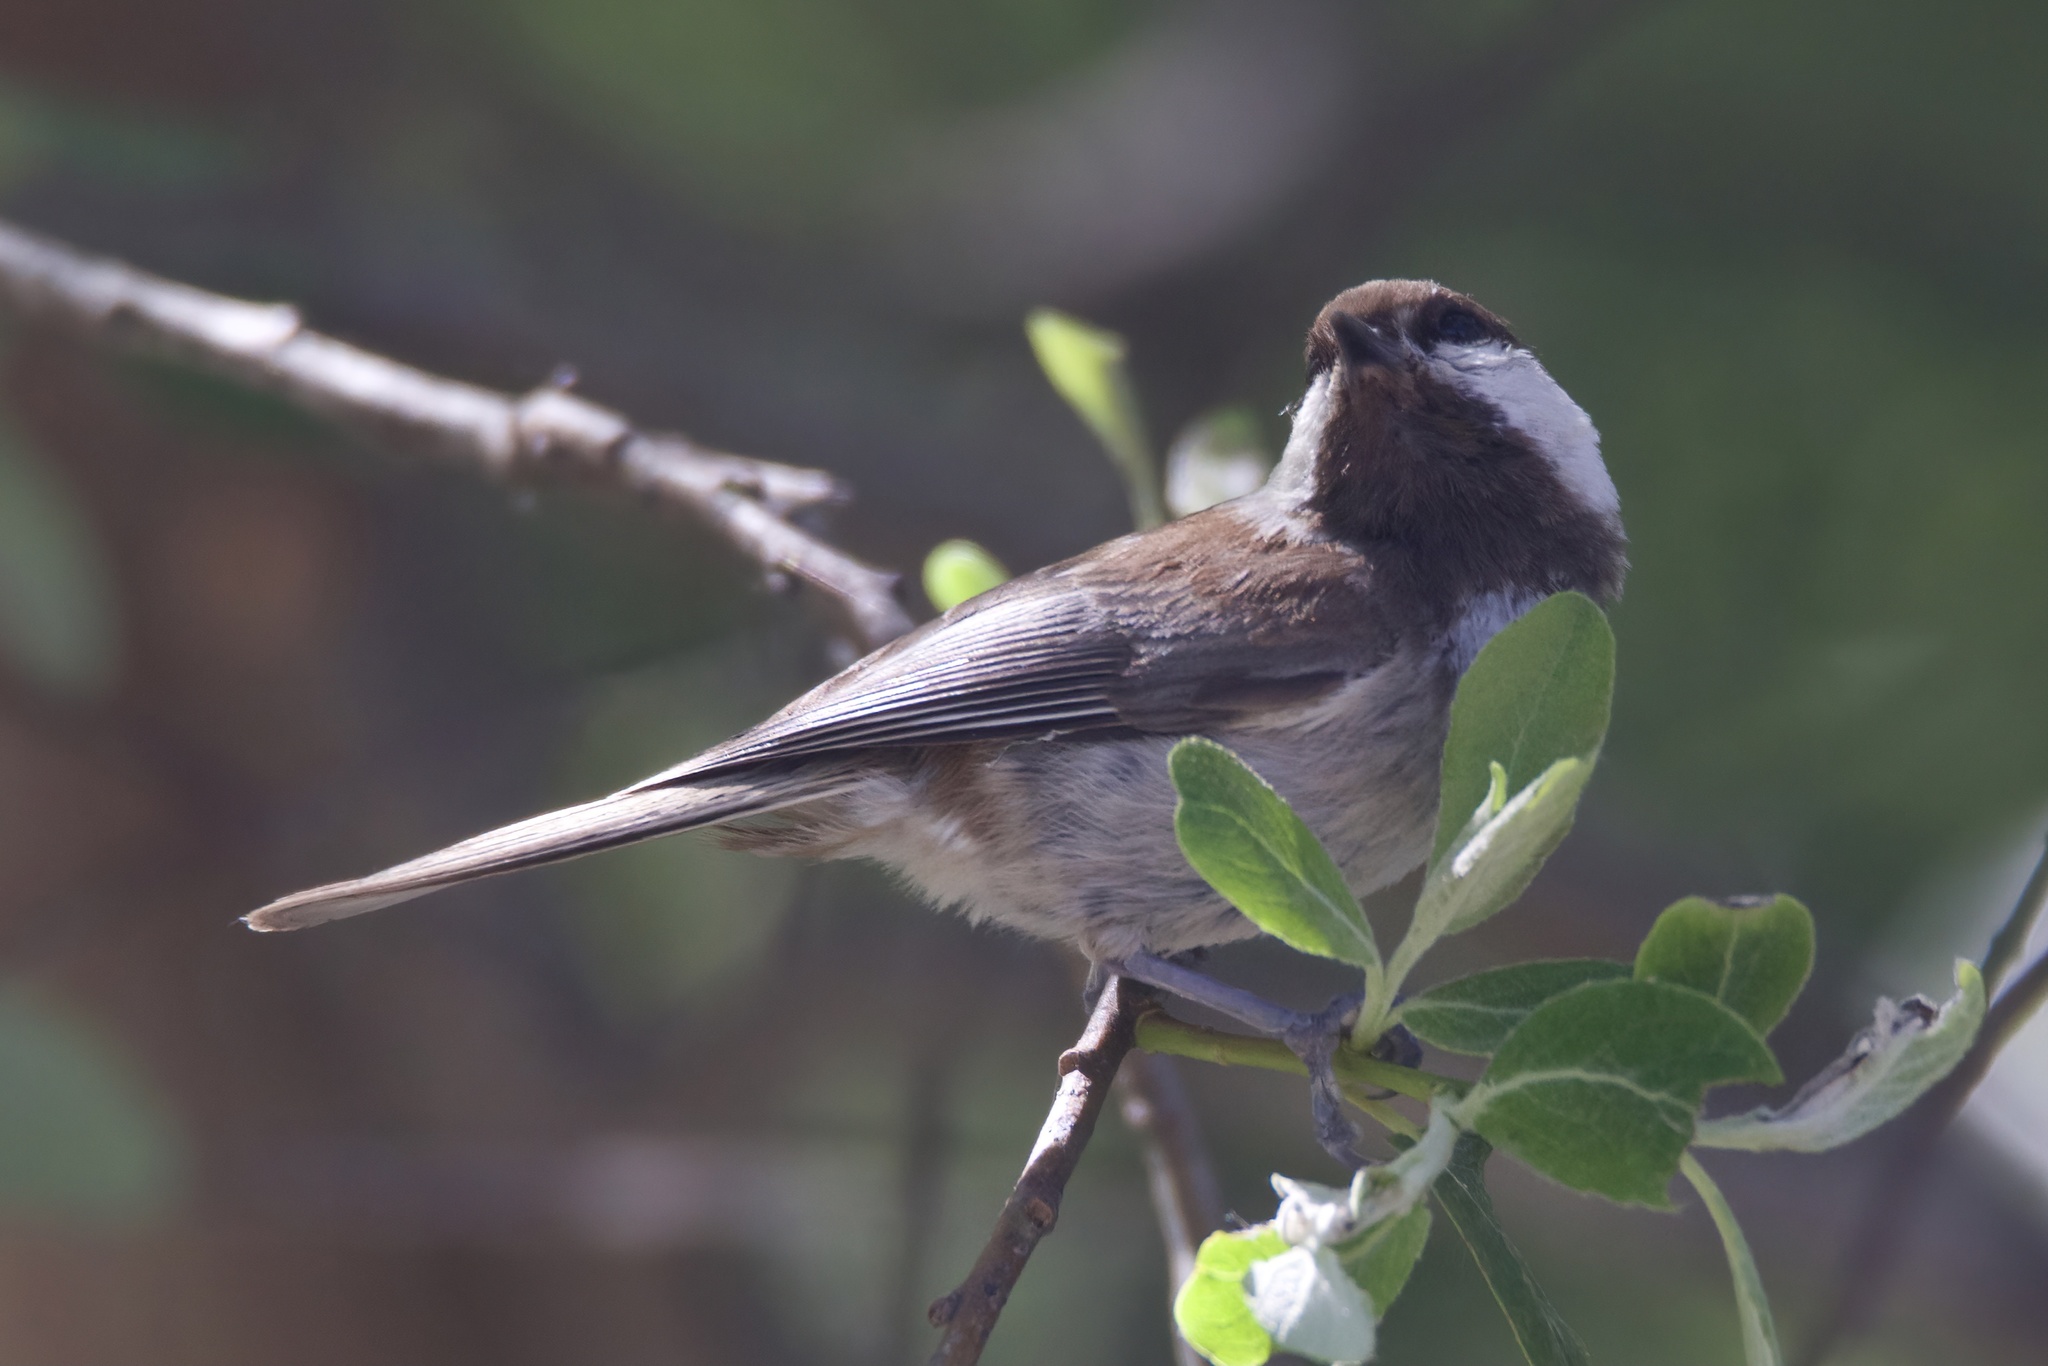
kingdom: Animalia
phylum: Chordata
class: Aves
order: Passeriformes
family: Paridae
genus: Poecile
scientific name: Poecile rufescens
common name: Chestnut-backed chickadee
